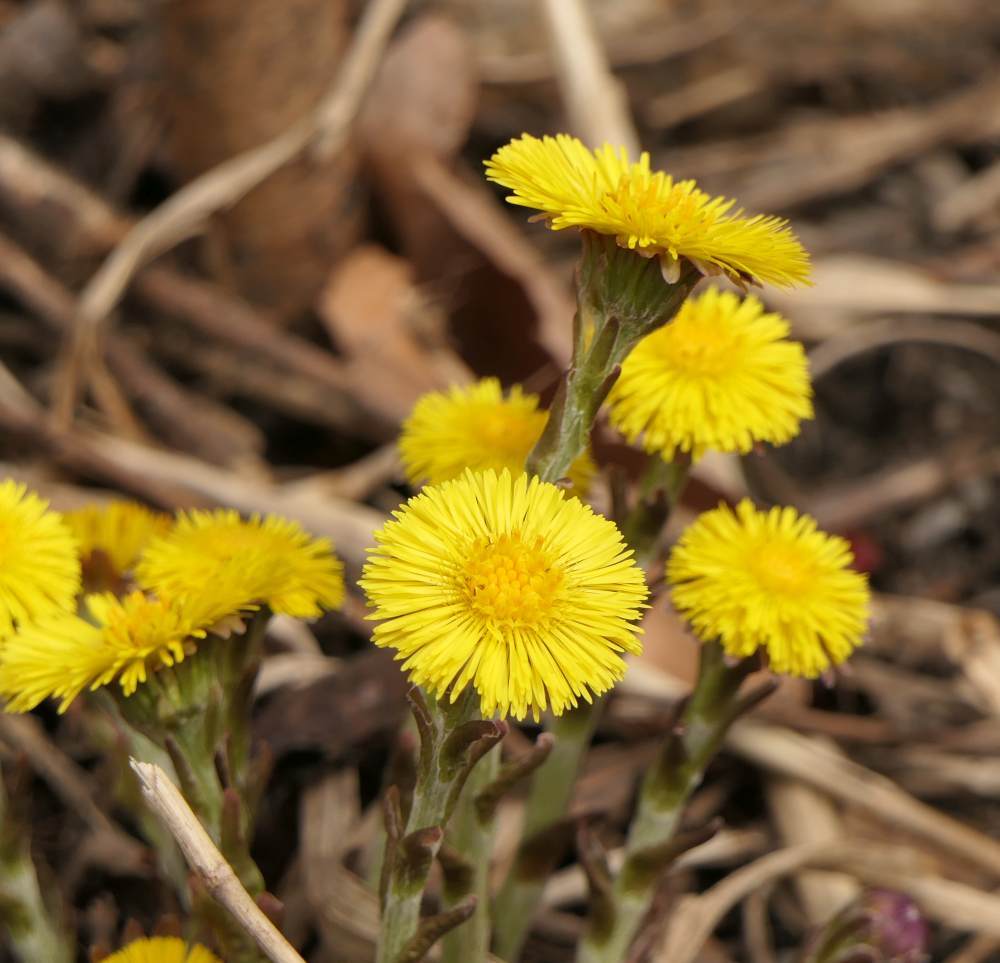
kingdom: Plantae
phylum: Tracheophyta
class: Magnoliopsida
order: Asterales
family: Asteraceae
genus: Tussilago
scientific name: Tussilago farfara
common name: Coltsfoot
